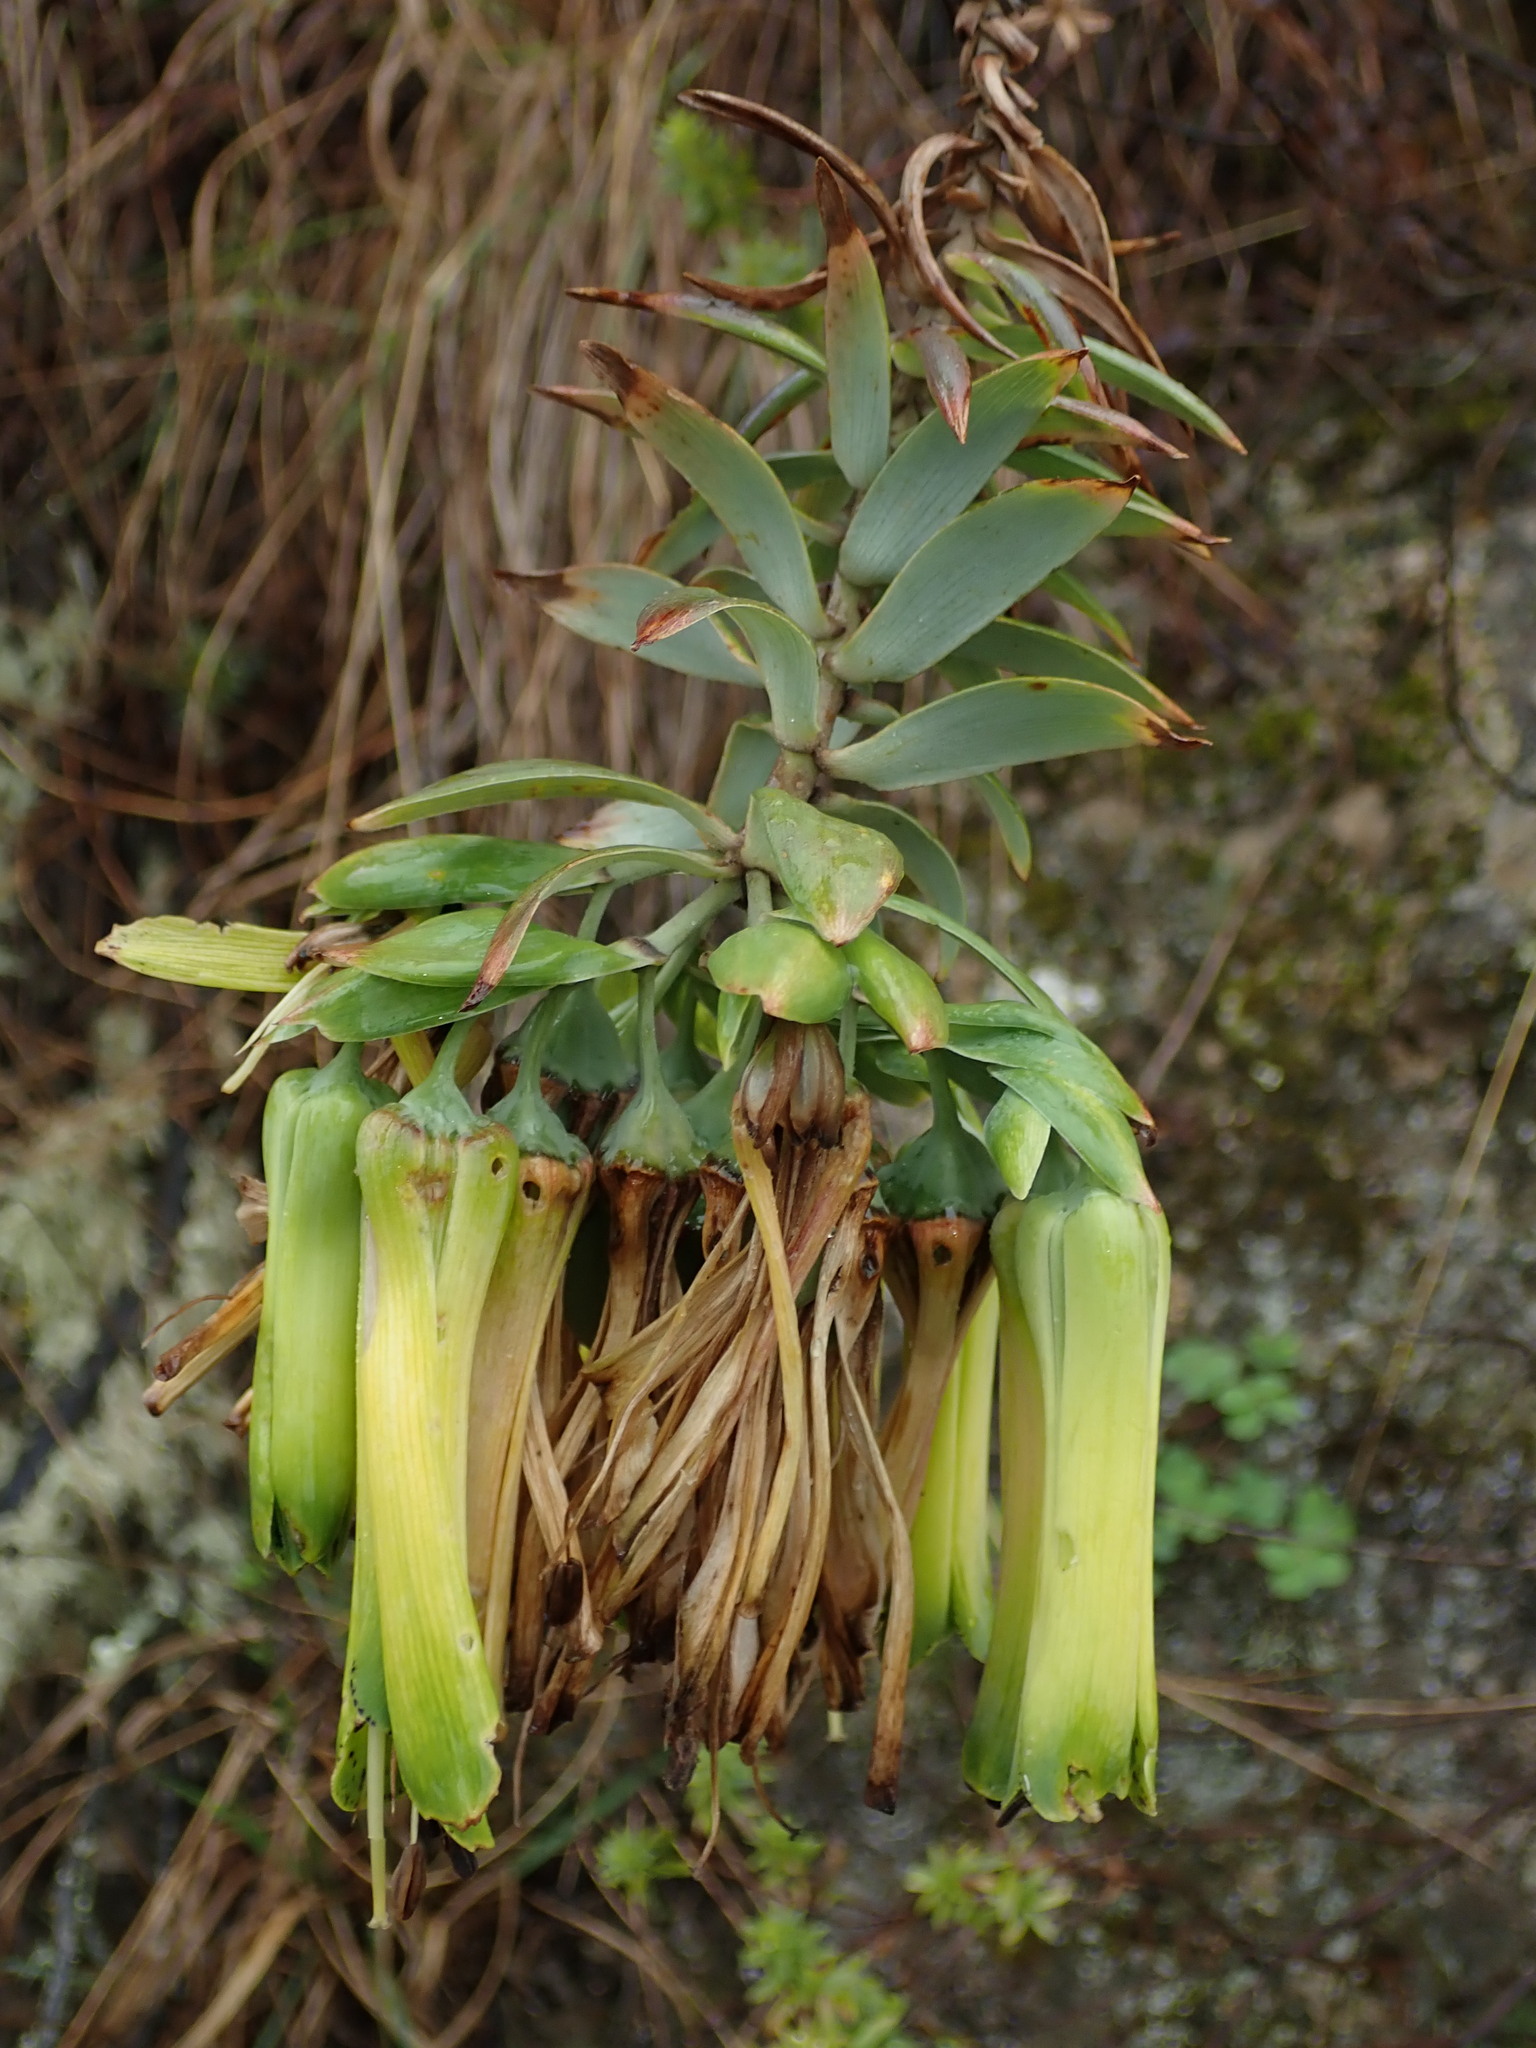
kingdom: Plantae
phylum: Tracheophyta
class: Liliopsida
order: Liliales
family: Alstroemeriaceae
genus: Bomarea
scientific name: Bomarea involucrosa
